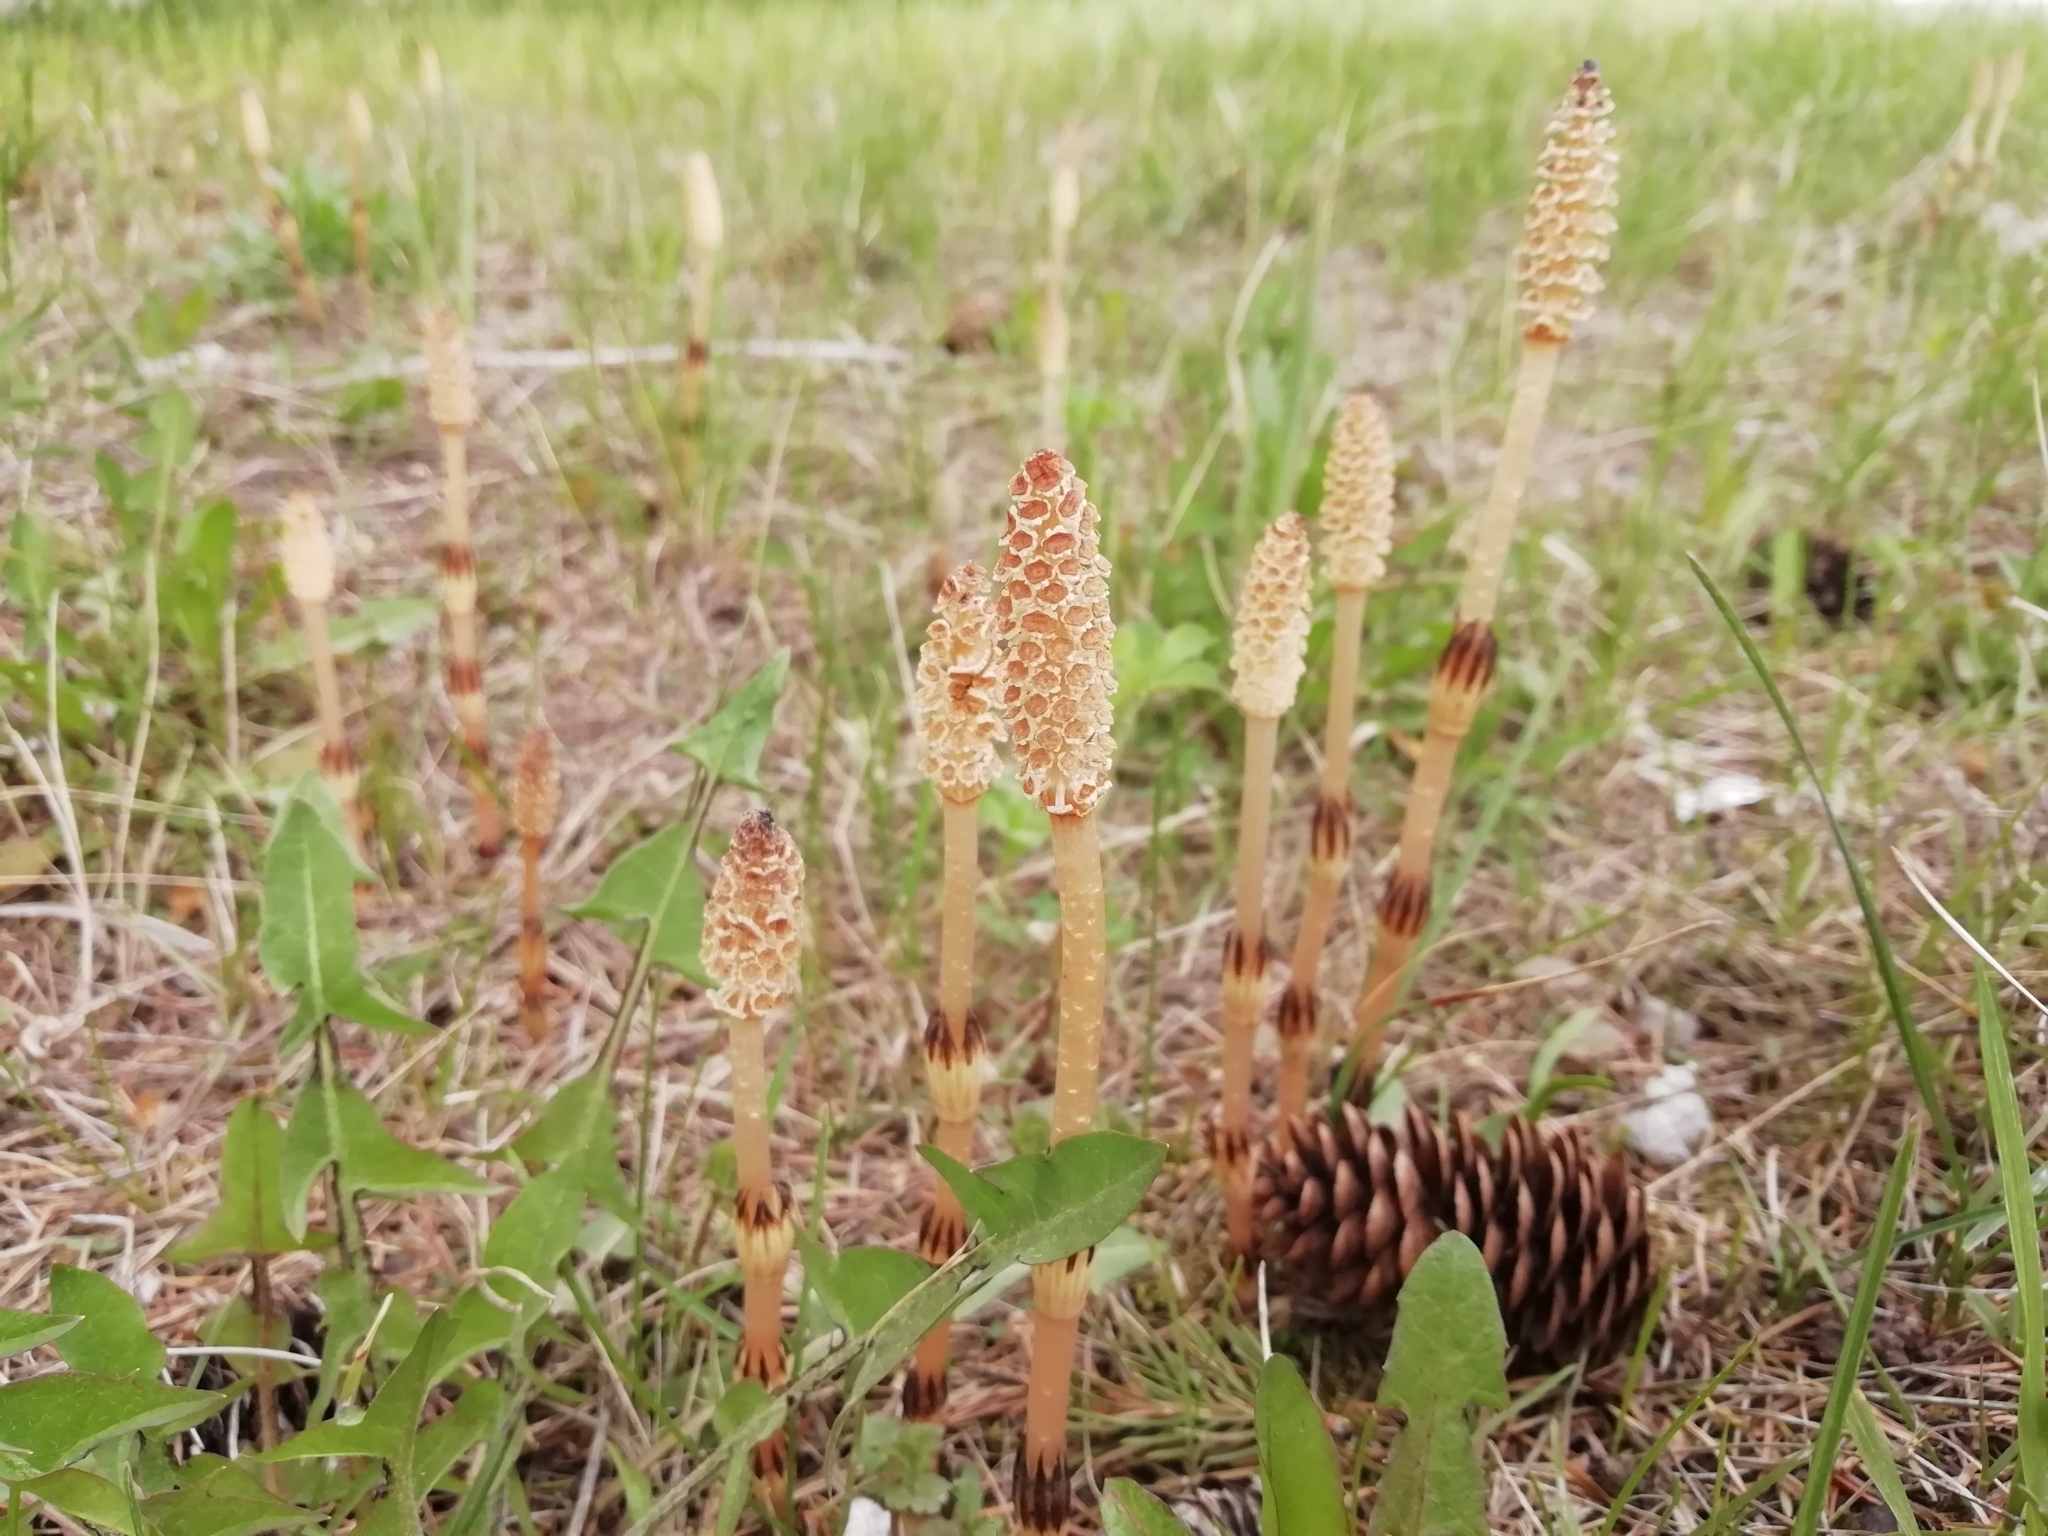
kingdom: Plantae
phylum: Tracheophyta
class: Polypodiopsida
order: Equisetales
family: Equisetaceae
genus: Equisetum
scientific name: Equisetum arvense
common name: Field horsetail
